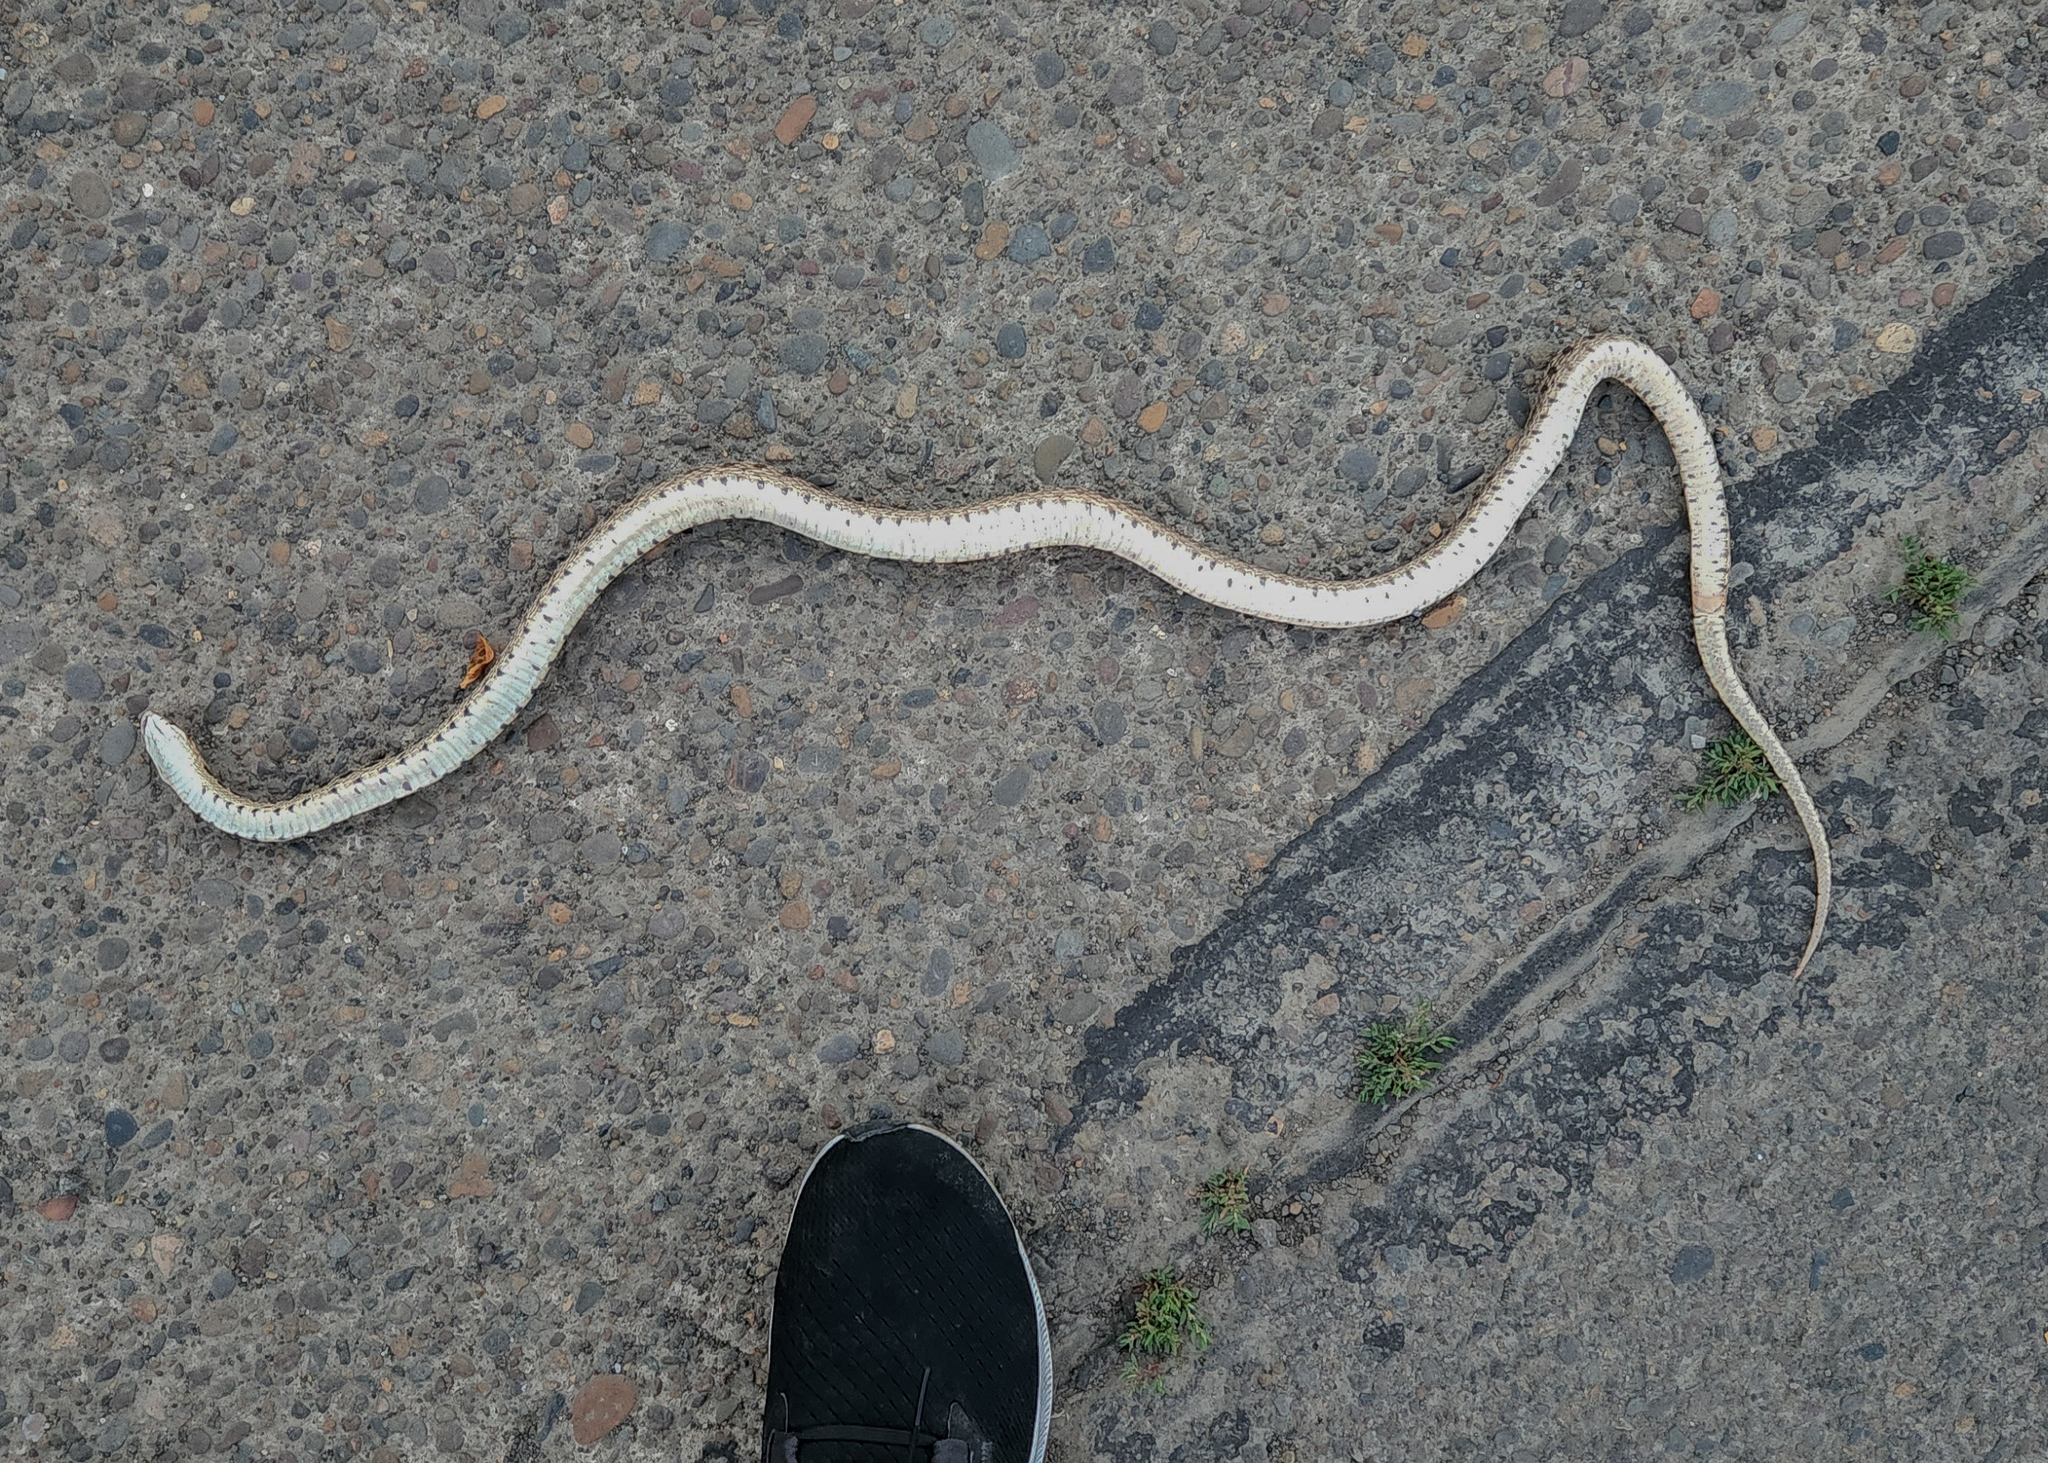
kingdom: Animalia
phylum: Chordata
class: Squamata
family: Colubridae
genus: Pituophis
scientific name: Pituophis catenifer
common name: Gopher snake
